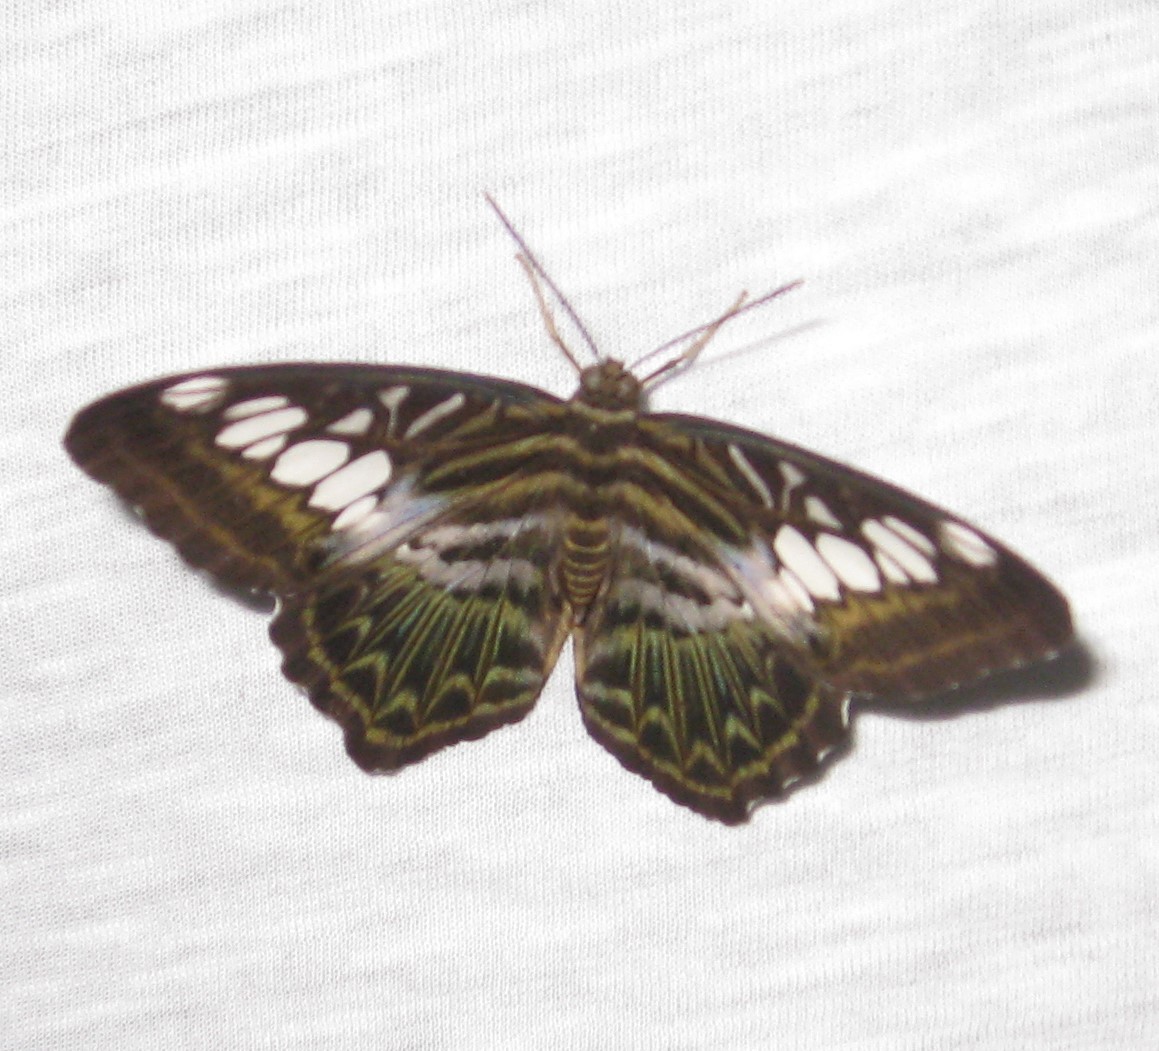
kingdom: Animalia
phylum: Arthropoda
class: Insecta
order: Lepidoptera
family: Nymphalidae
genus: Kallima
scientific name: Kallima sylvia
